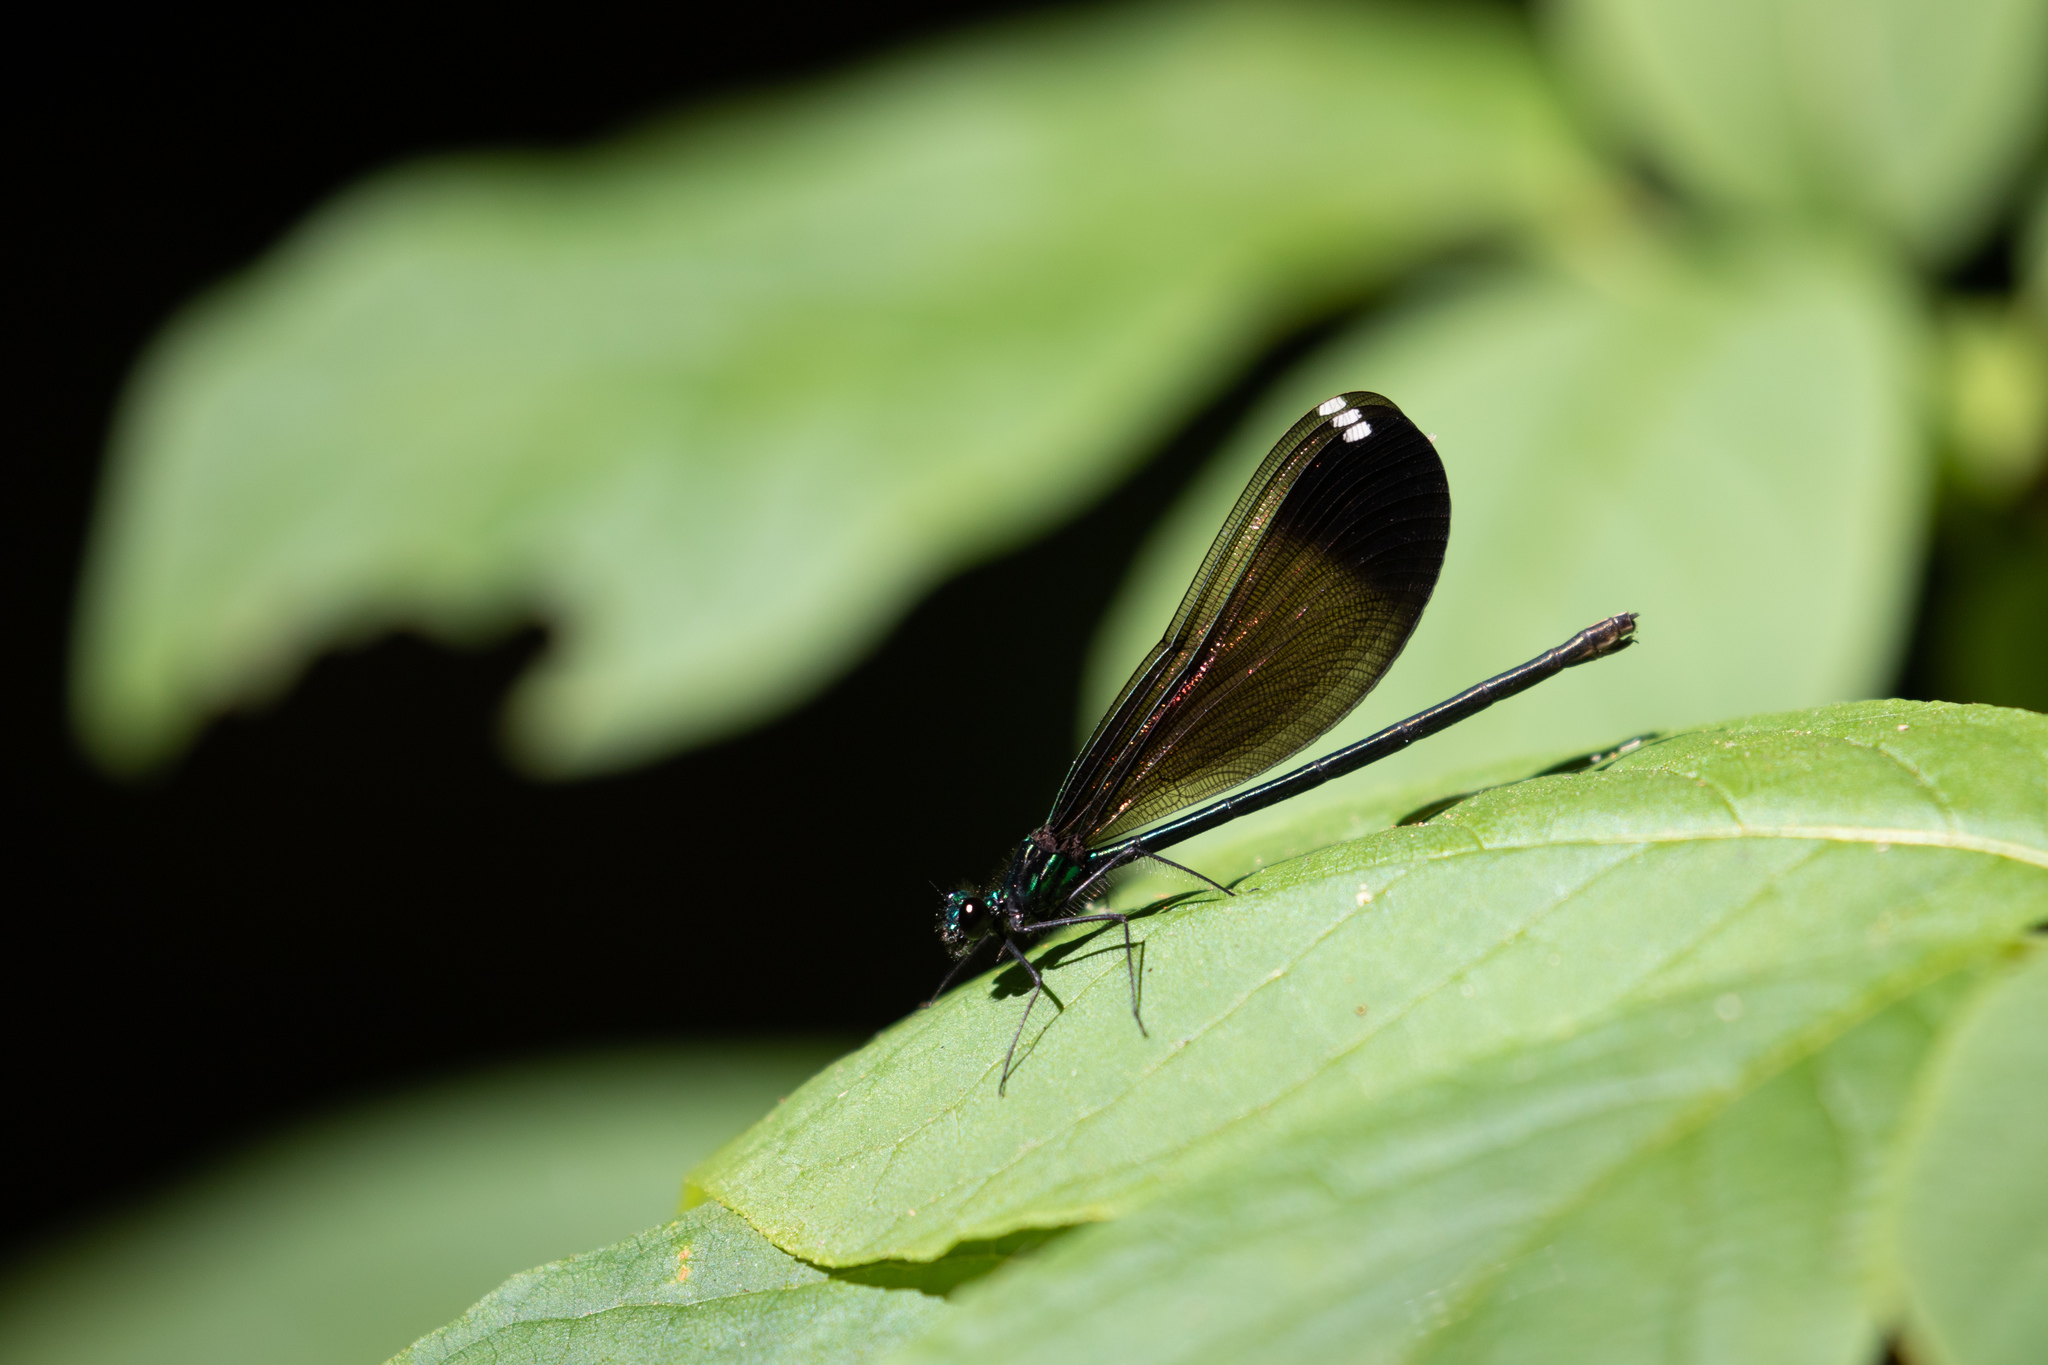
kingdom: Animalia
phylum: Arthropoda
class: Insecta
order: Odonata
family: Calopterygidae
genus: Calopteryx
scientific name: Calopteryx maculata
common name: Ebony jewelwing
